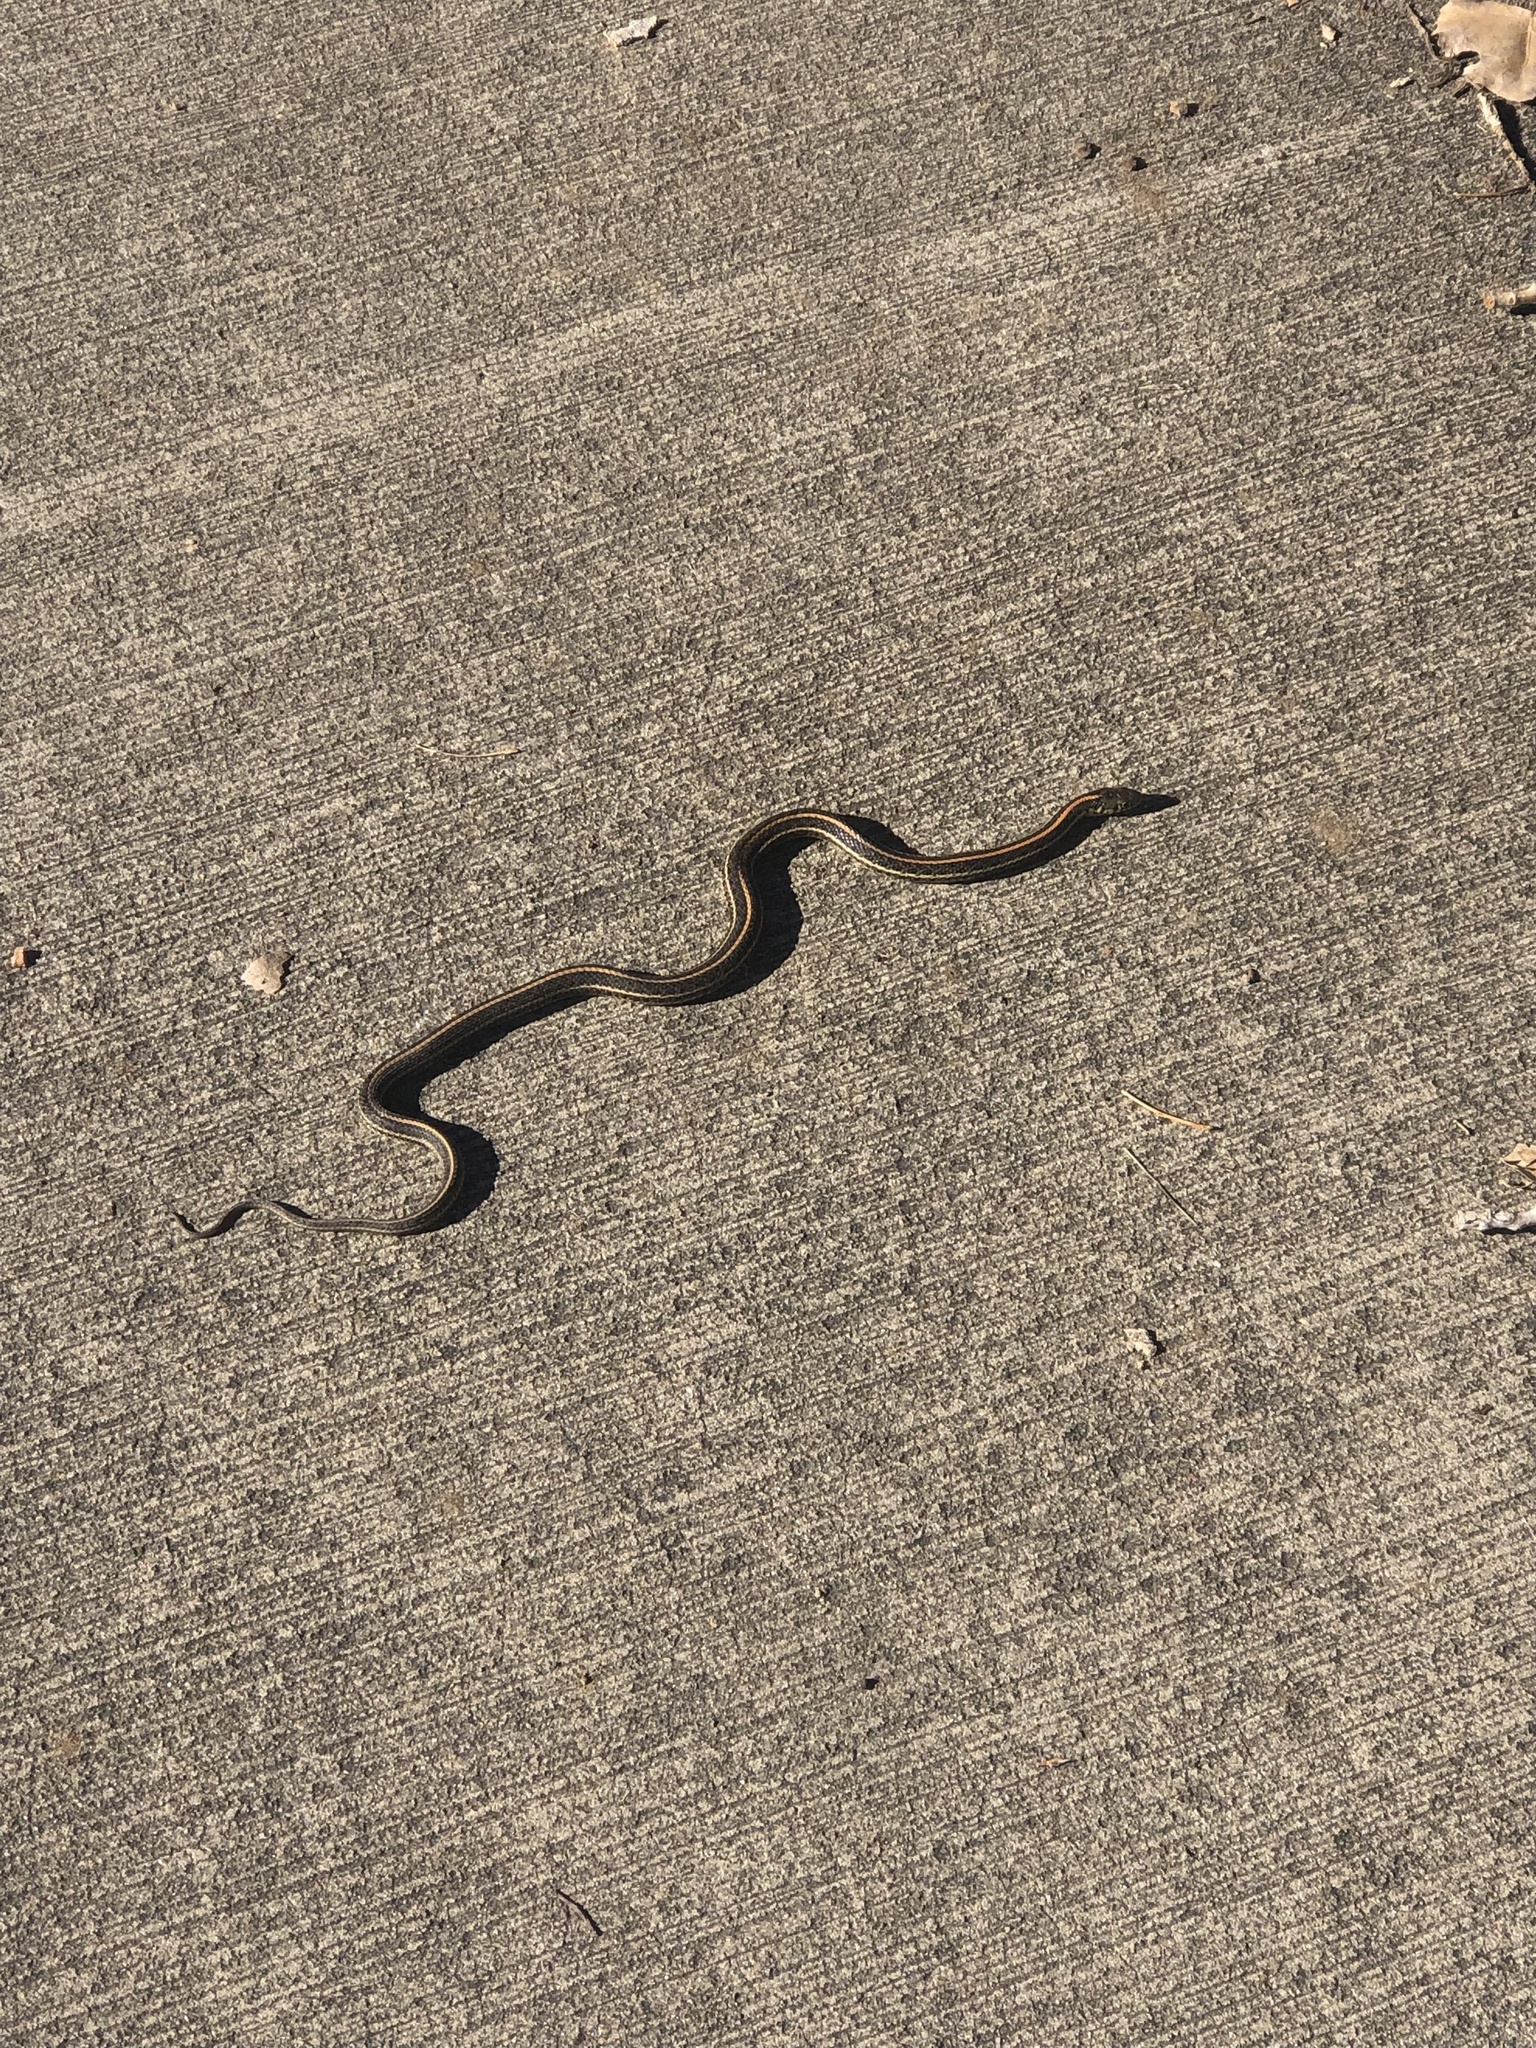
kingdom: Animalia
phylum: Chordata
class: Squamata
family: Colubridae
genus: Thamnophis
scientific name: Thamnophis radix
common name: Plains garter snake
